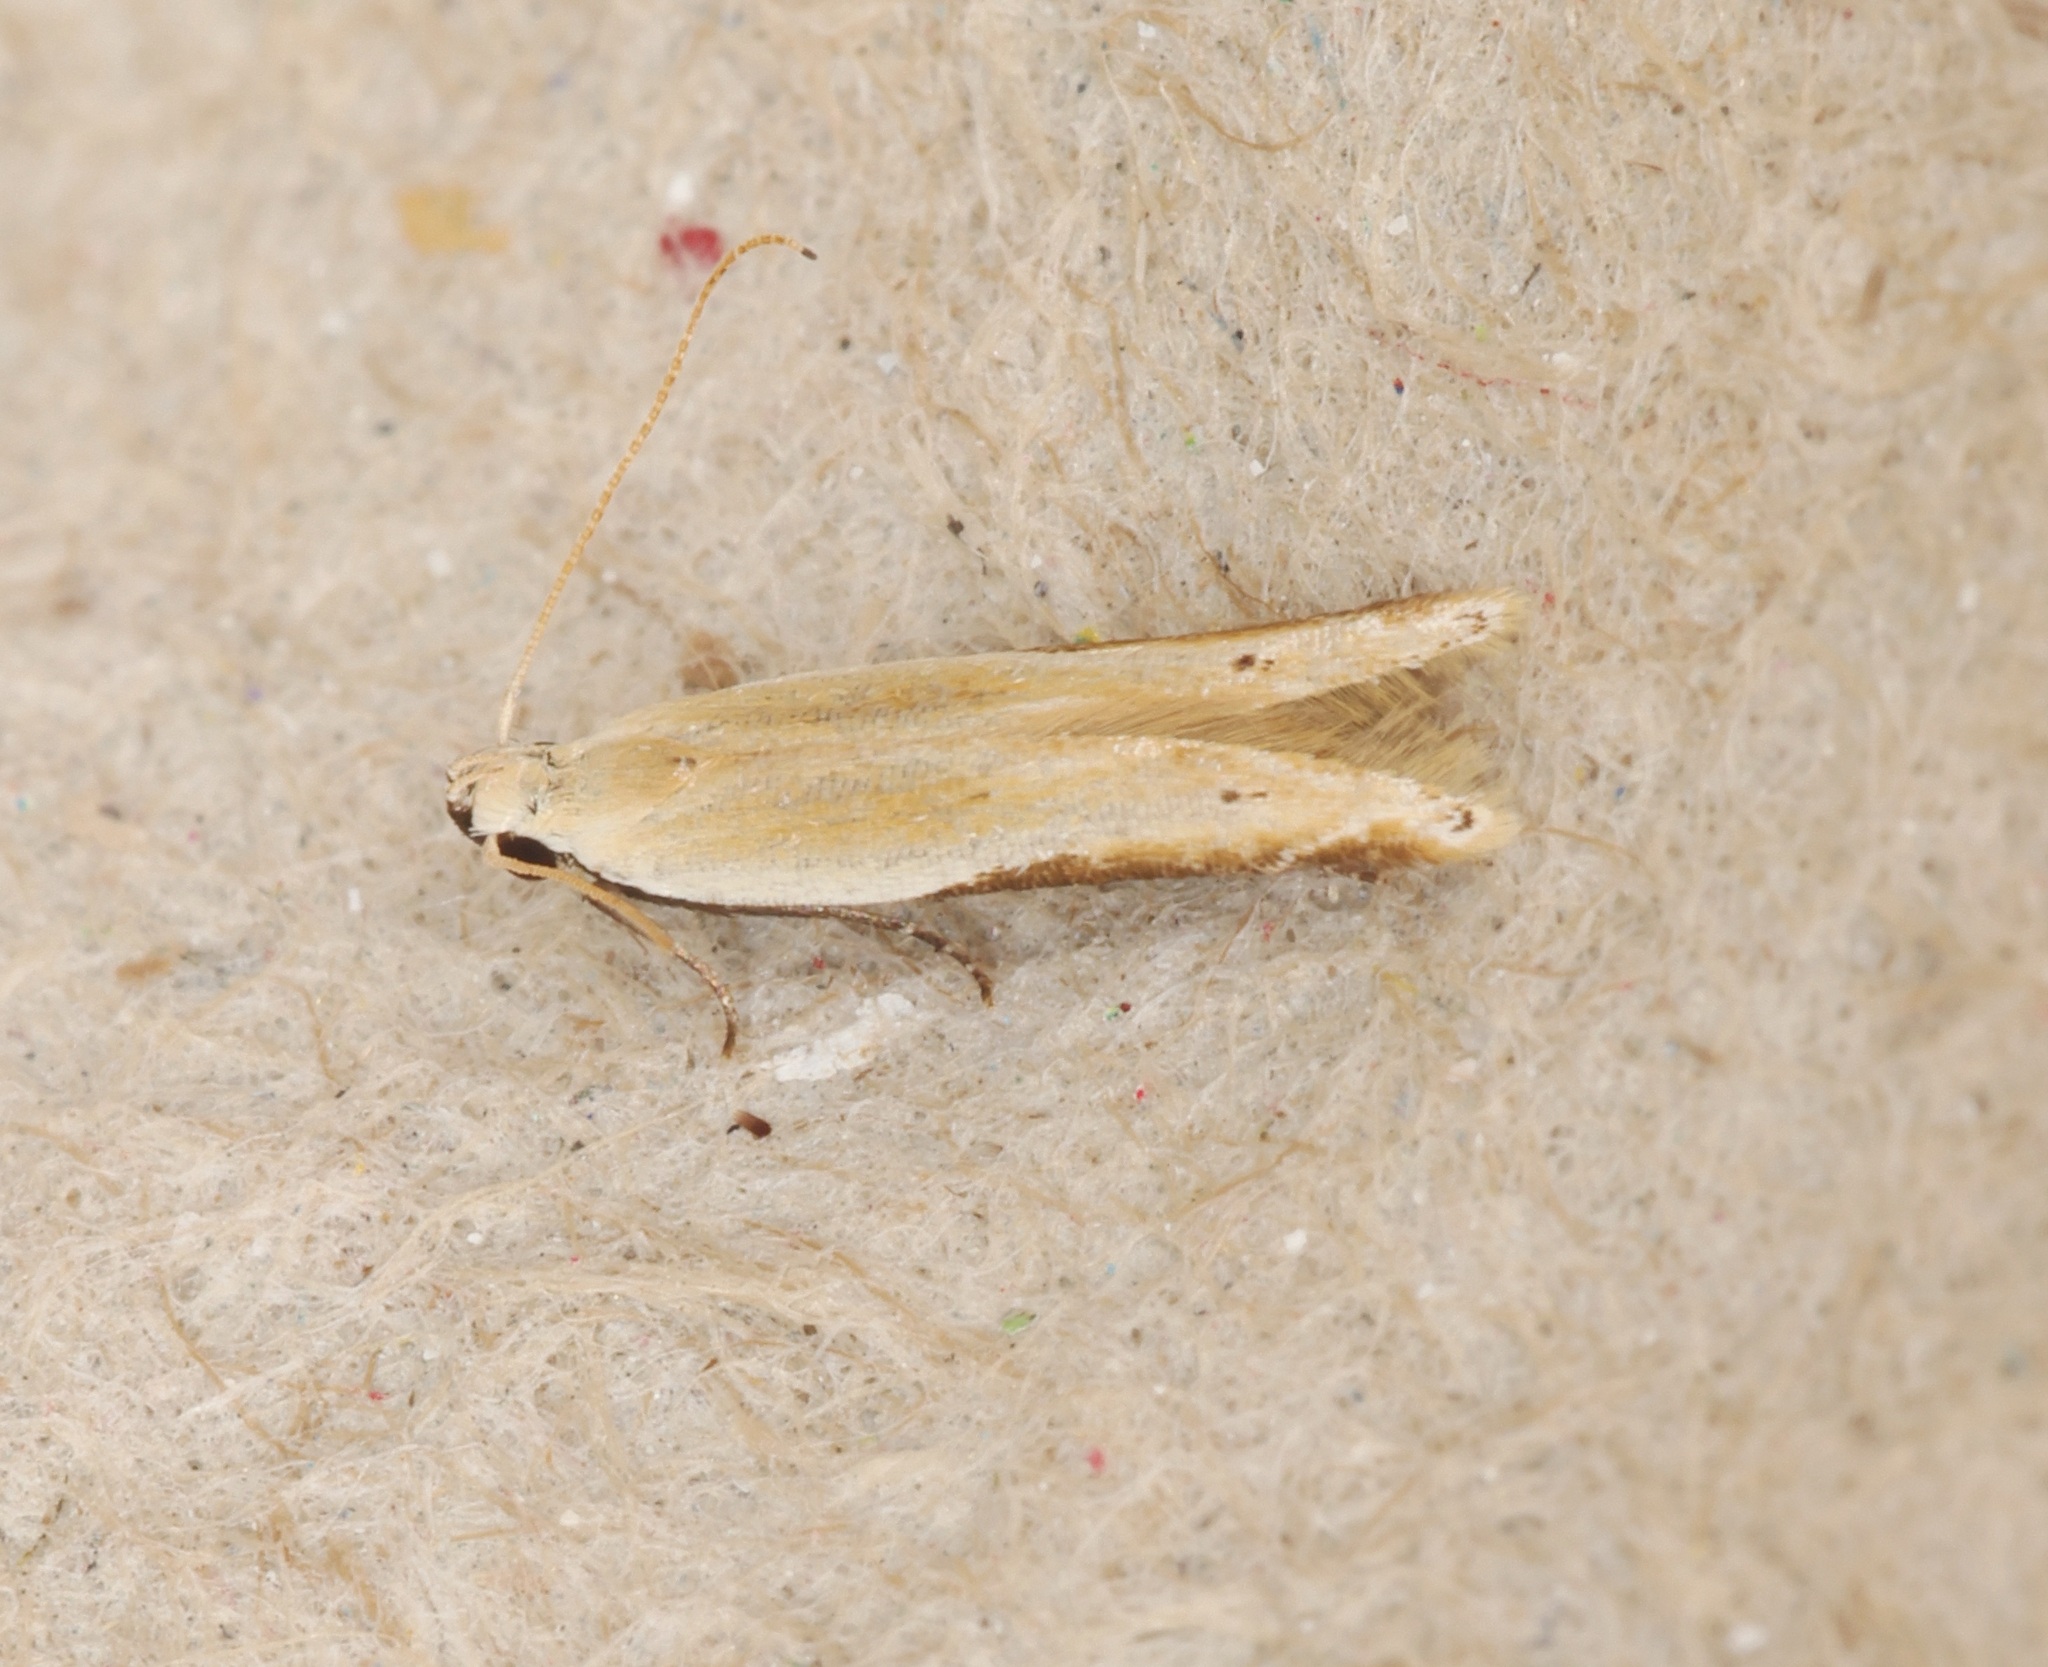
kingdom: Animalia
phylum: Arthropoda
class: Insecta
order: Lepidoptera
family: Gelechiidae
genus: Mesophleps
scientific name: Mesophleps coffeae
